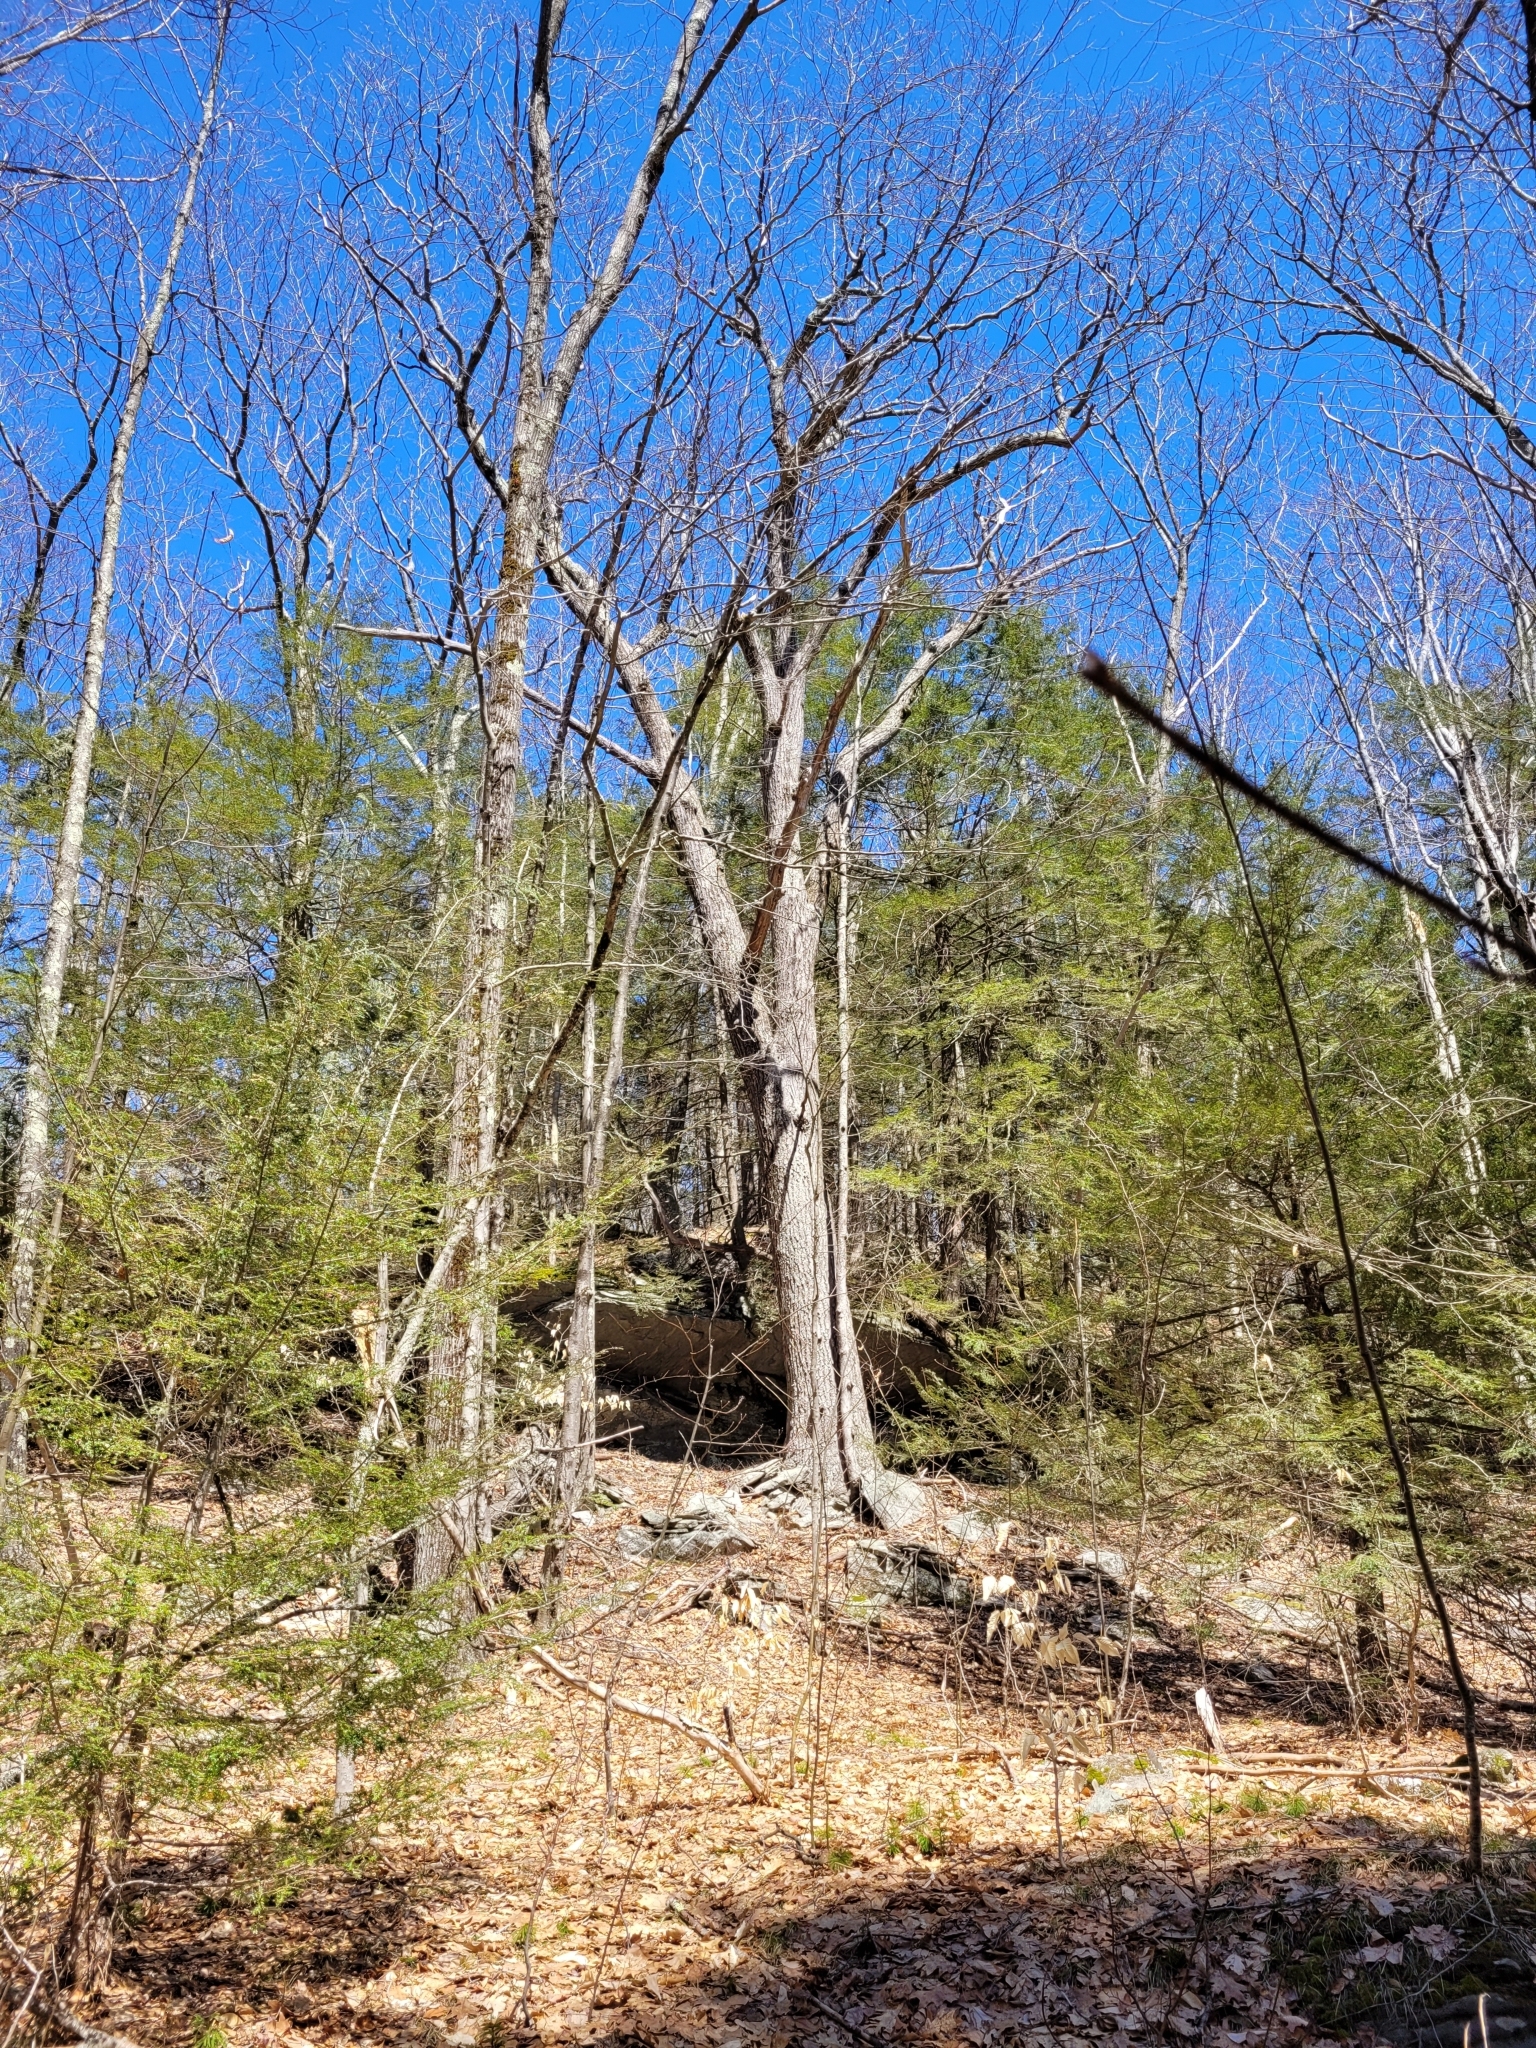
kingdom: Plantae
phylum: Tracheophyta
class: Magnoliopsida
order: Fagales
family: Fagaceae
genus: Quercus
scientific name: Quercus rubra
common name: Red oak
